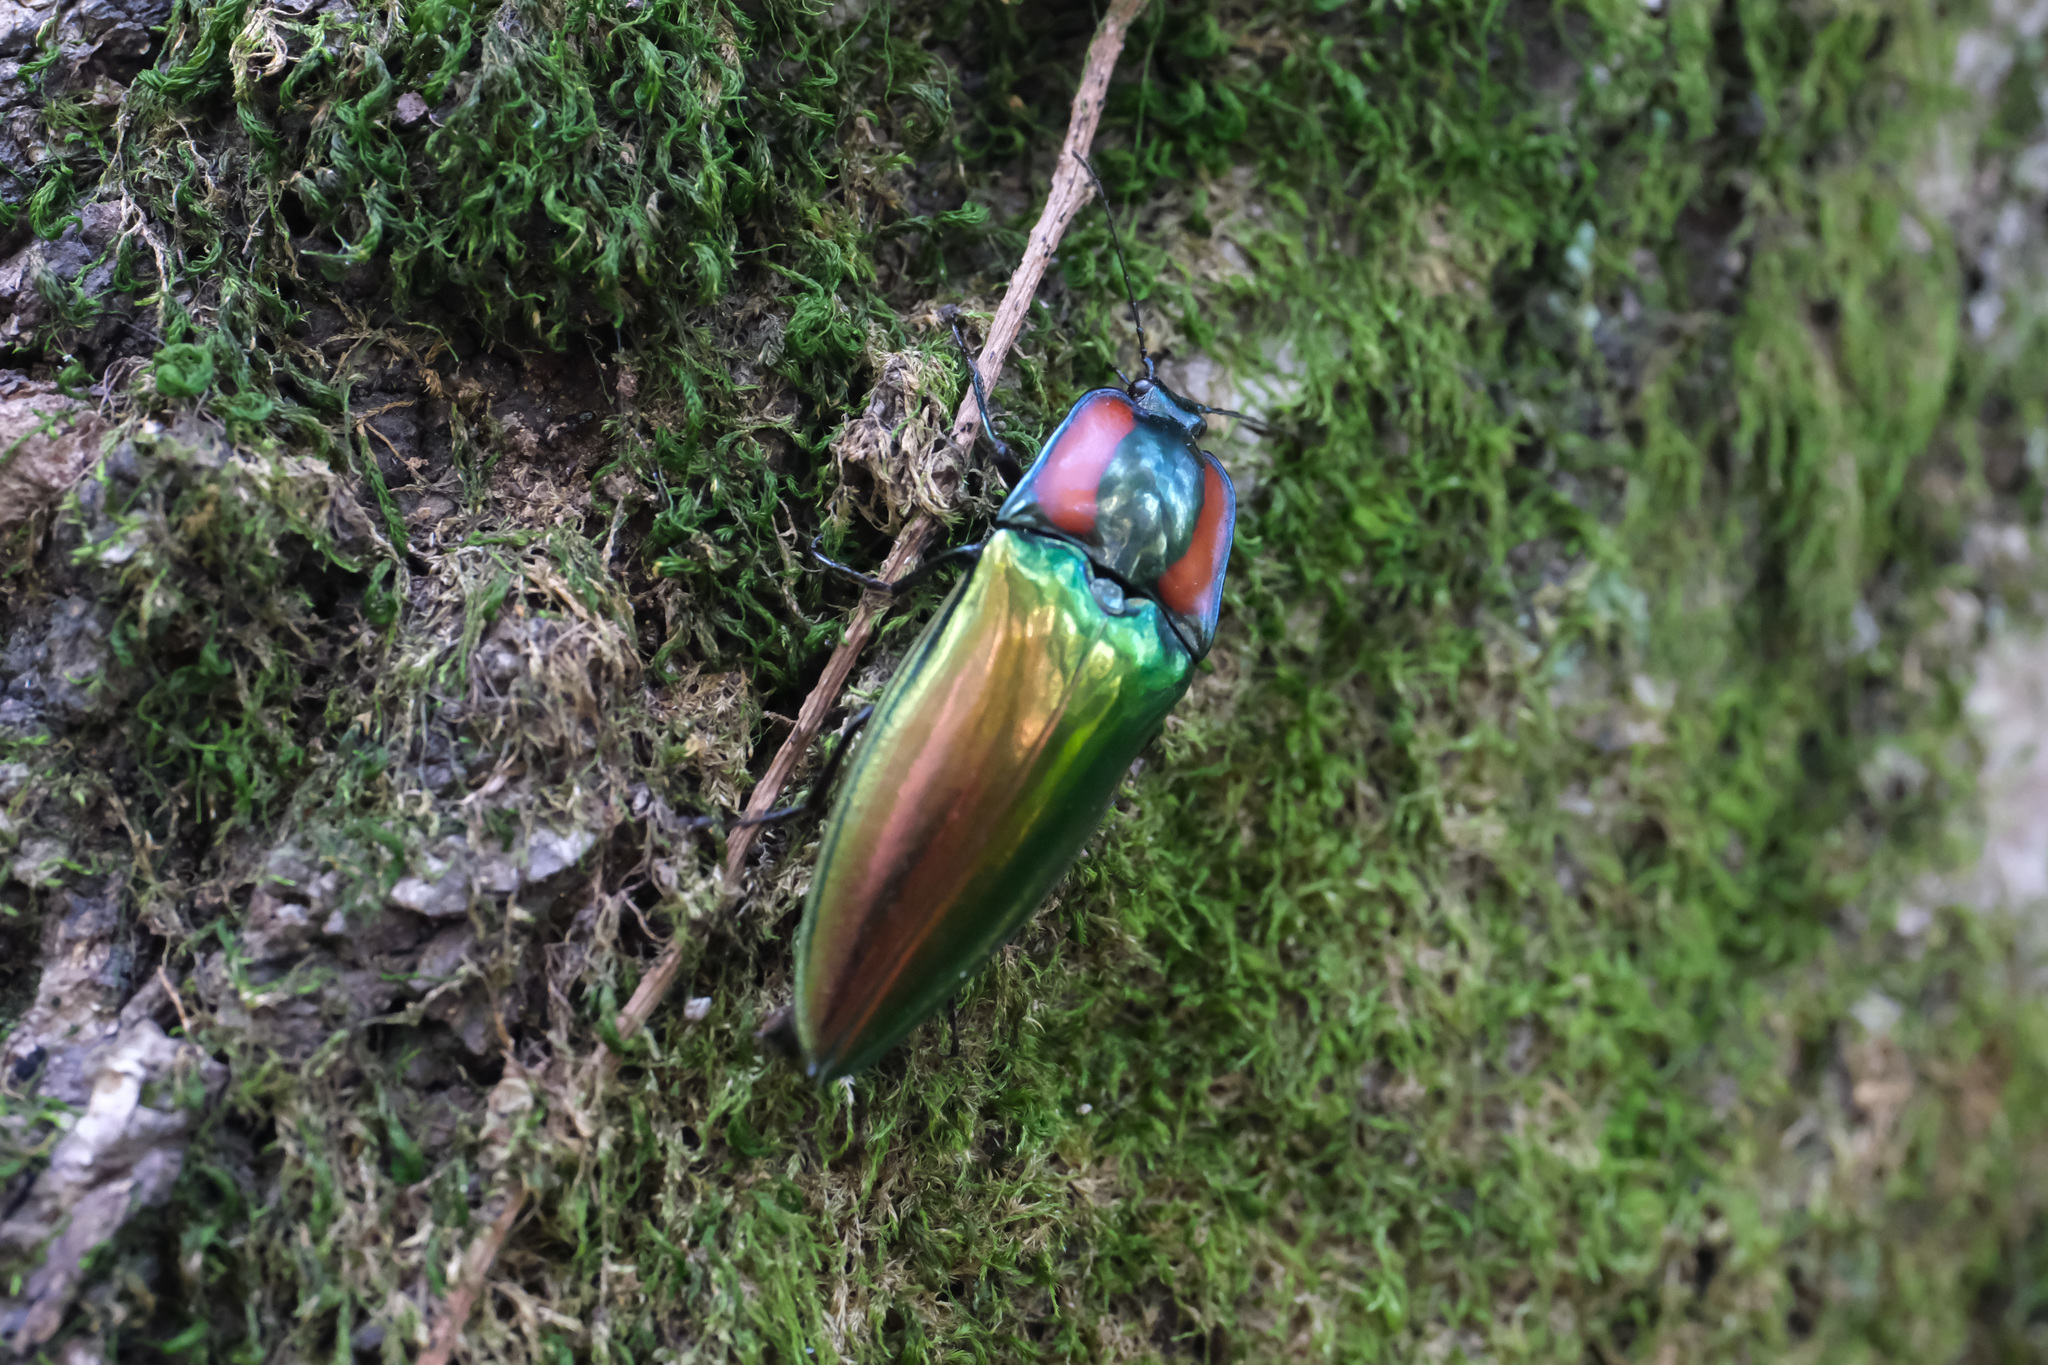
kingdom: Animalia
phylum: Arthropoda
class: Insecta
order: Coleoptera
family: Elateridae
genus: Campsosternus
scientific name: Campsosternus gemma
